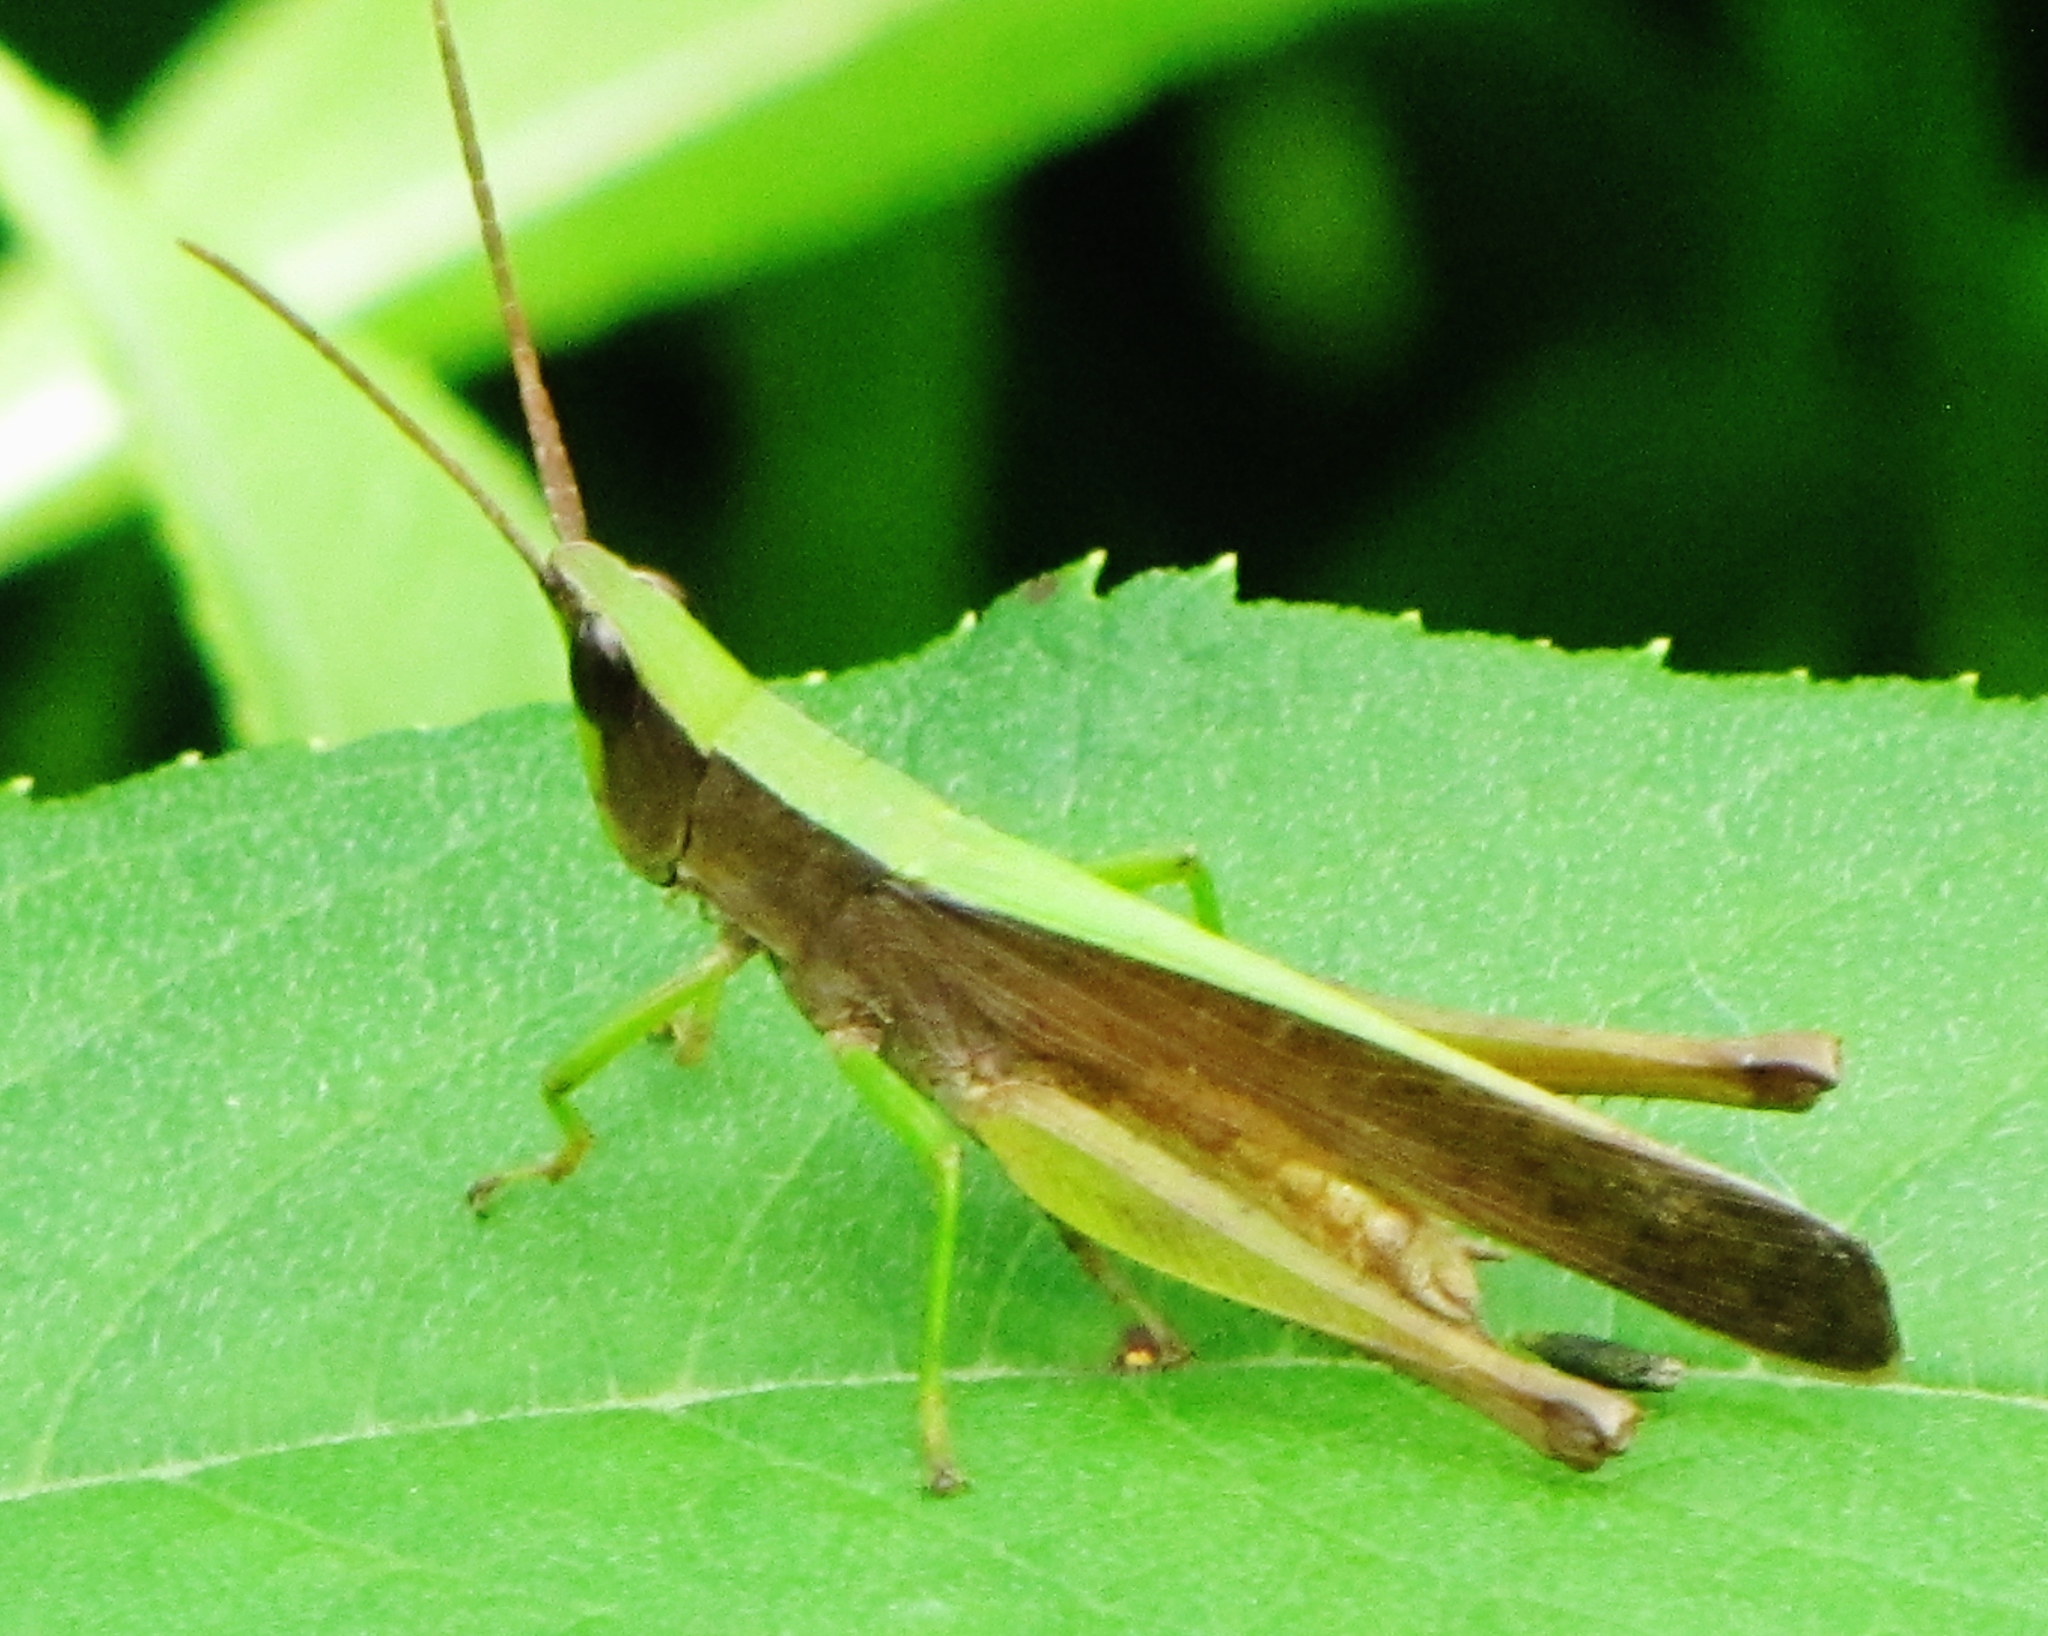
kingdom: Animalia
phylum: Arthropoda
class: Insecta
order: Orthoptera
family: Acrididae
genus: Metaleptea
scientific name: Metaleptea brevicornis
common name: Clipped-wing grasshopper
